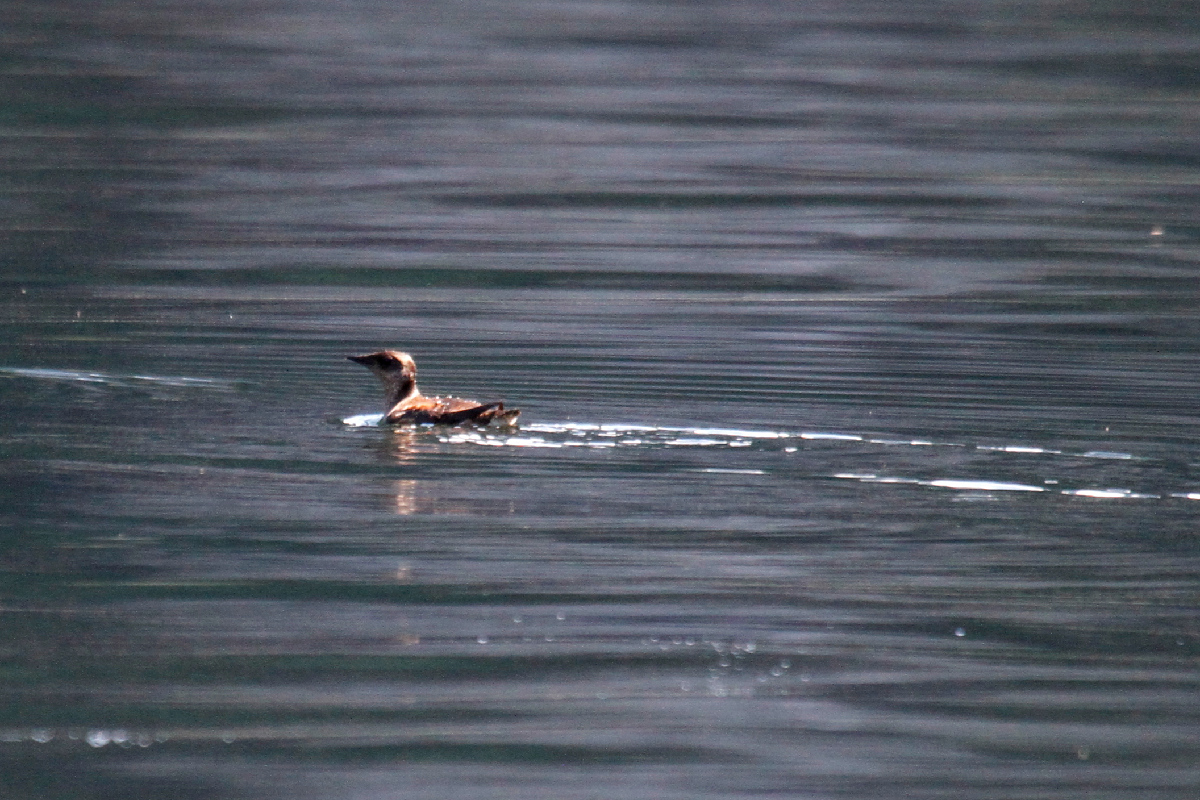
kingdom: Animalia
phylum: Chordata
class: Aves
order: Charadriiformes
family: Alcidae
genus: Brachyramphus
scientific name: Brachyramphus marmoratus
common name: Marbled murrelet
